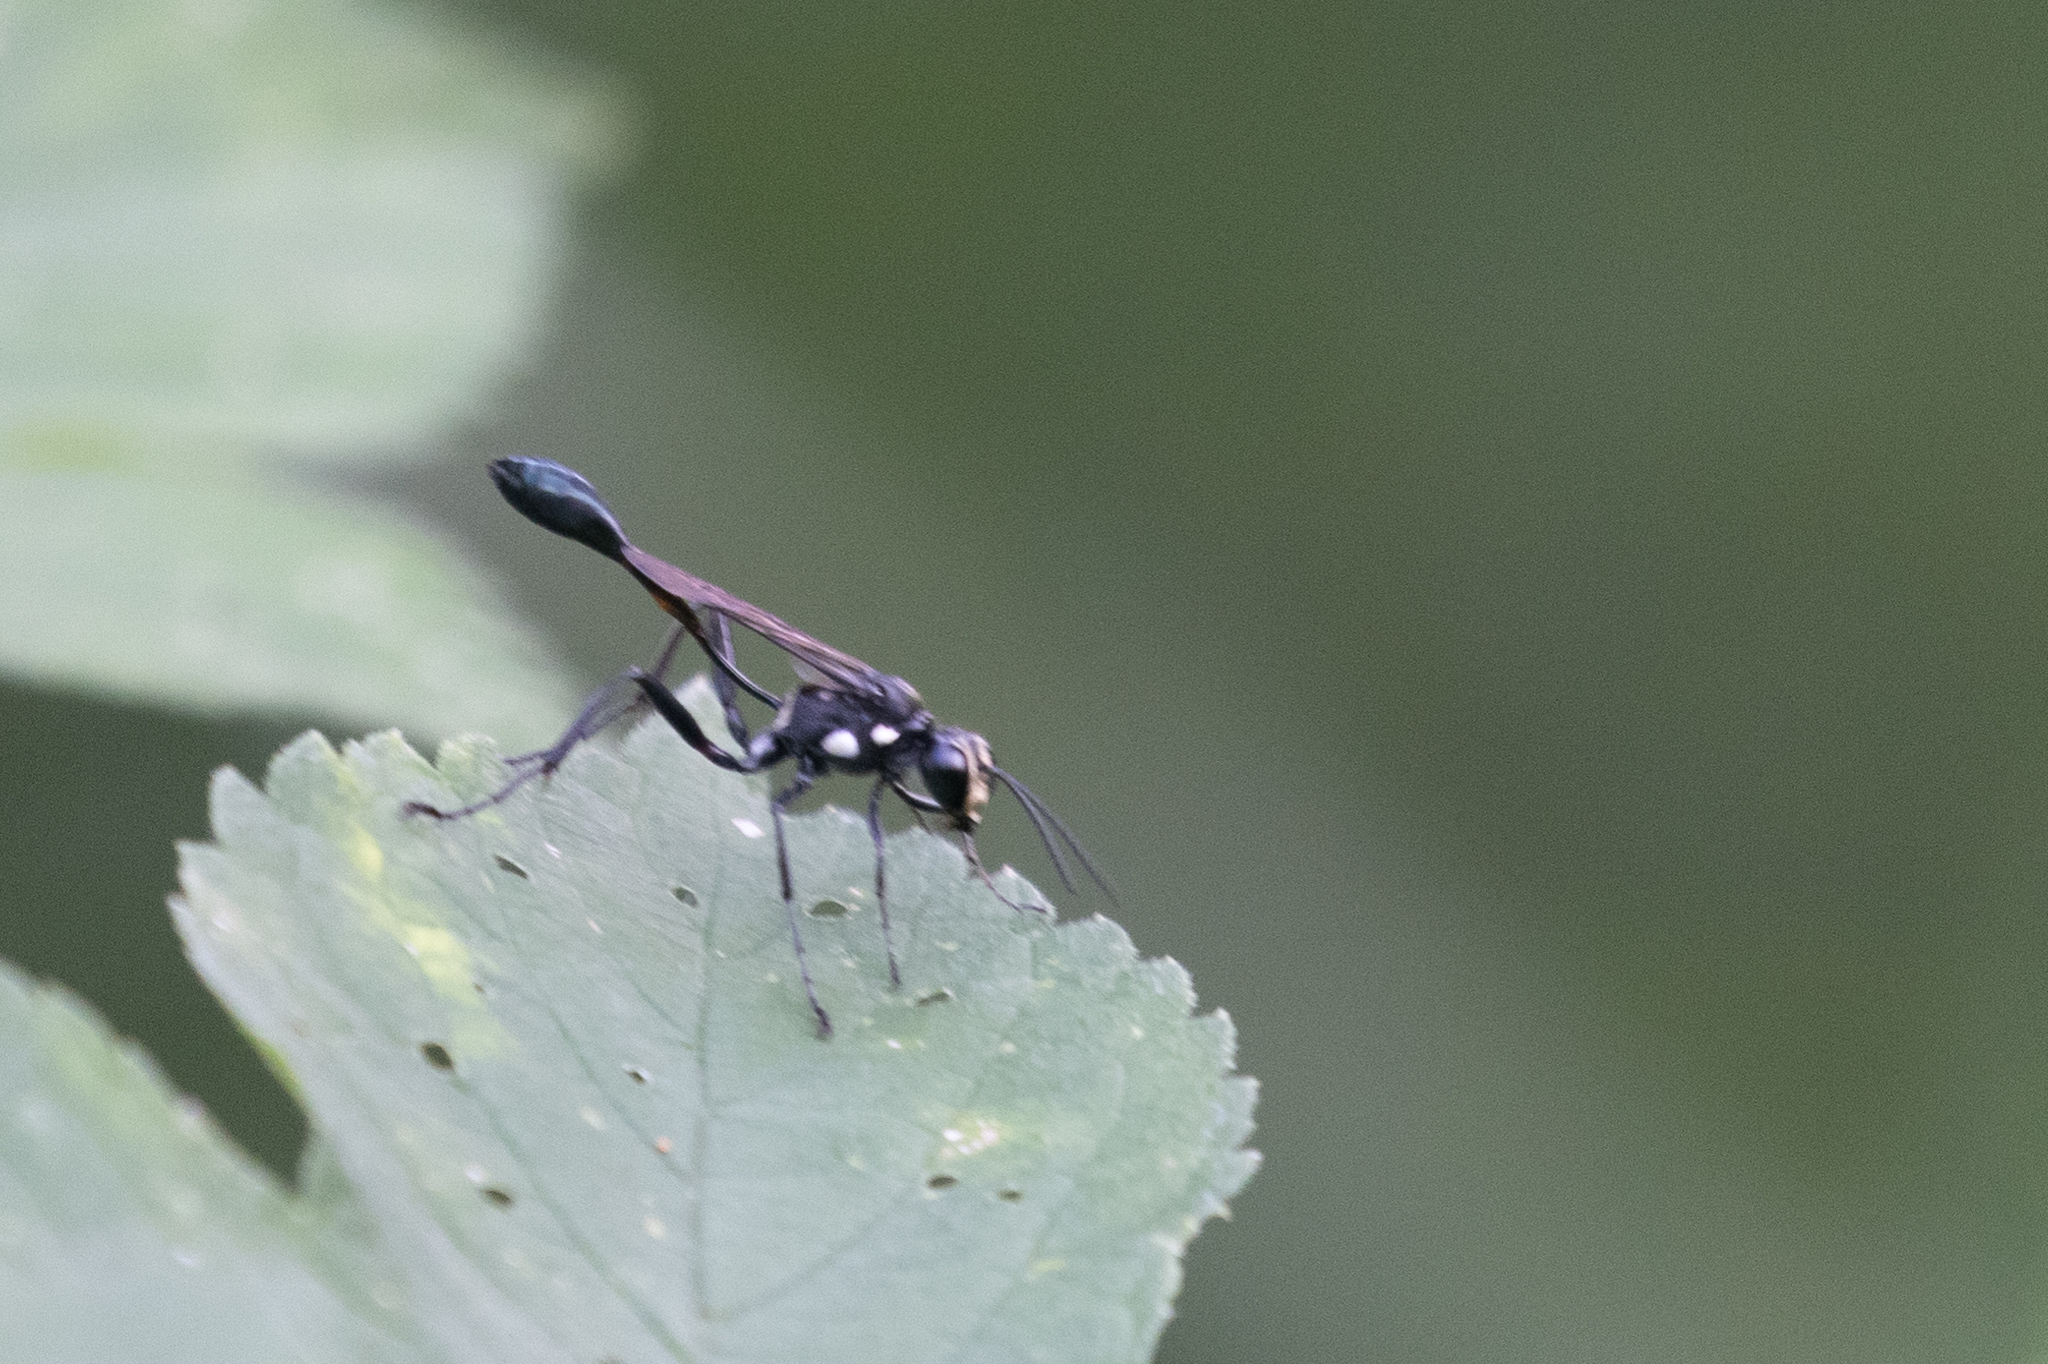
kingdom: Animalia
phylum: Arthropoda
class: Insecta
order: Hymenoptera
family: Sphecidae
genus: Eremnophila
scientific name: Eremnophila aureonotata
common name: Gold-marked thread-waisted wasp
